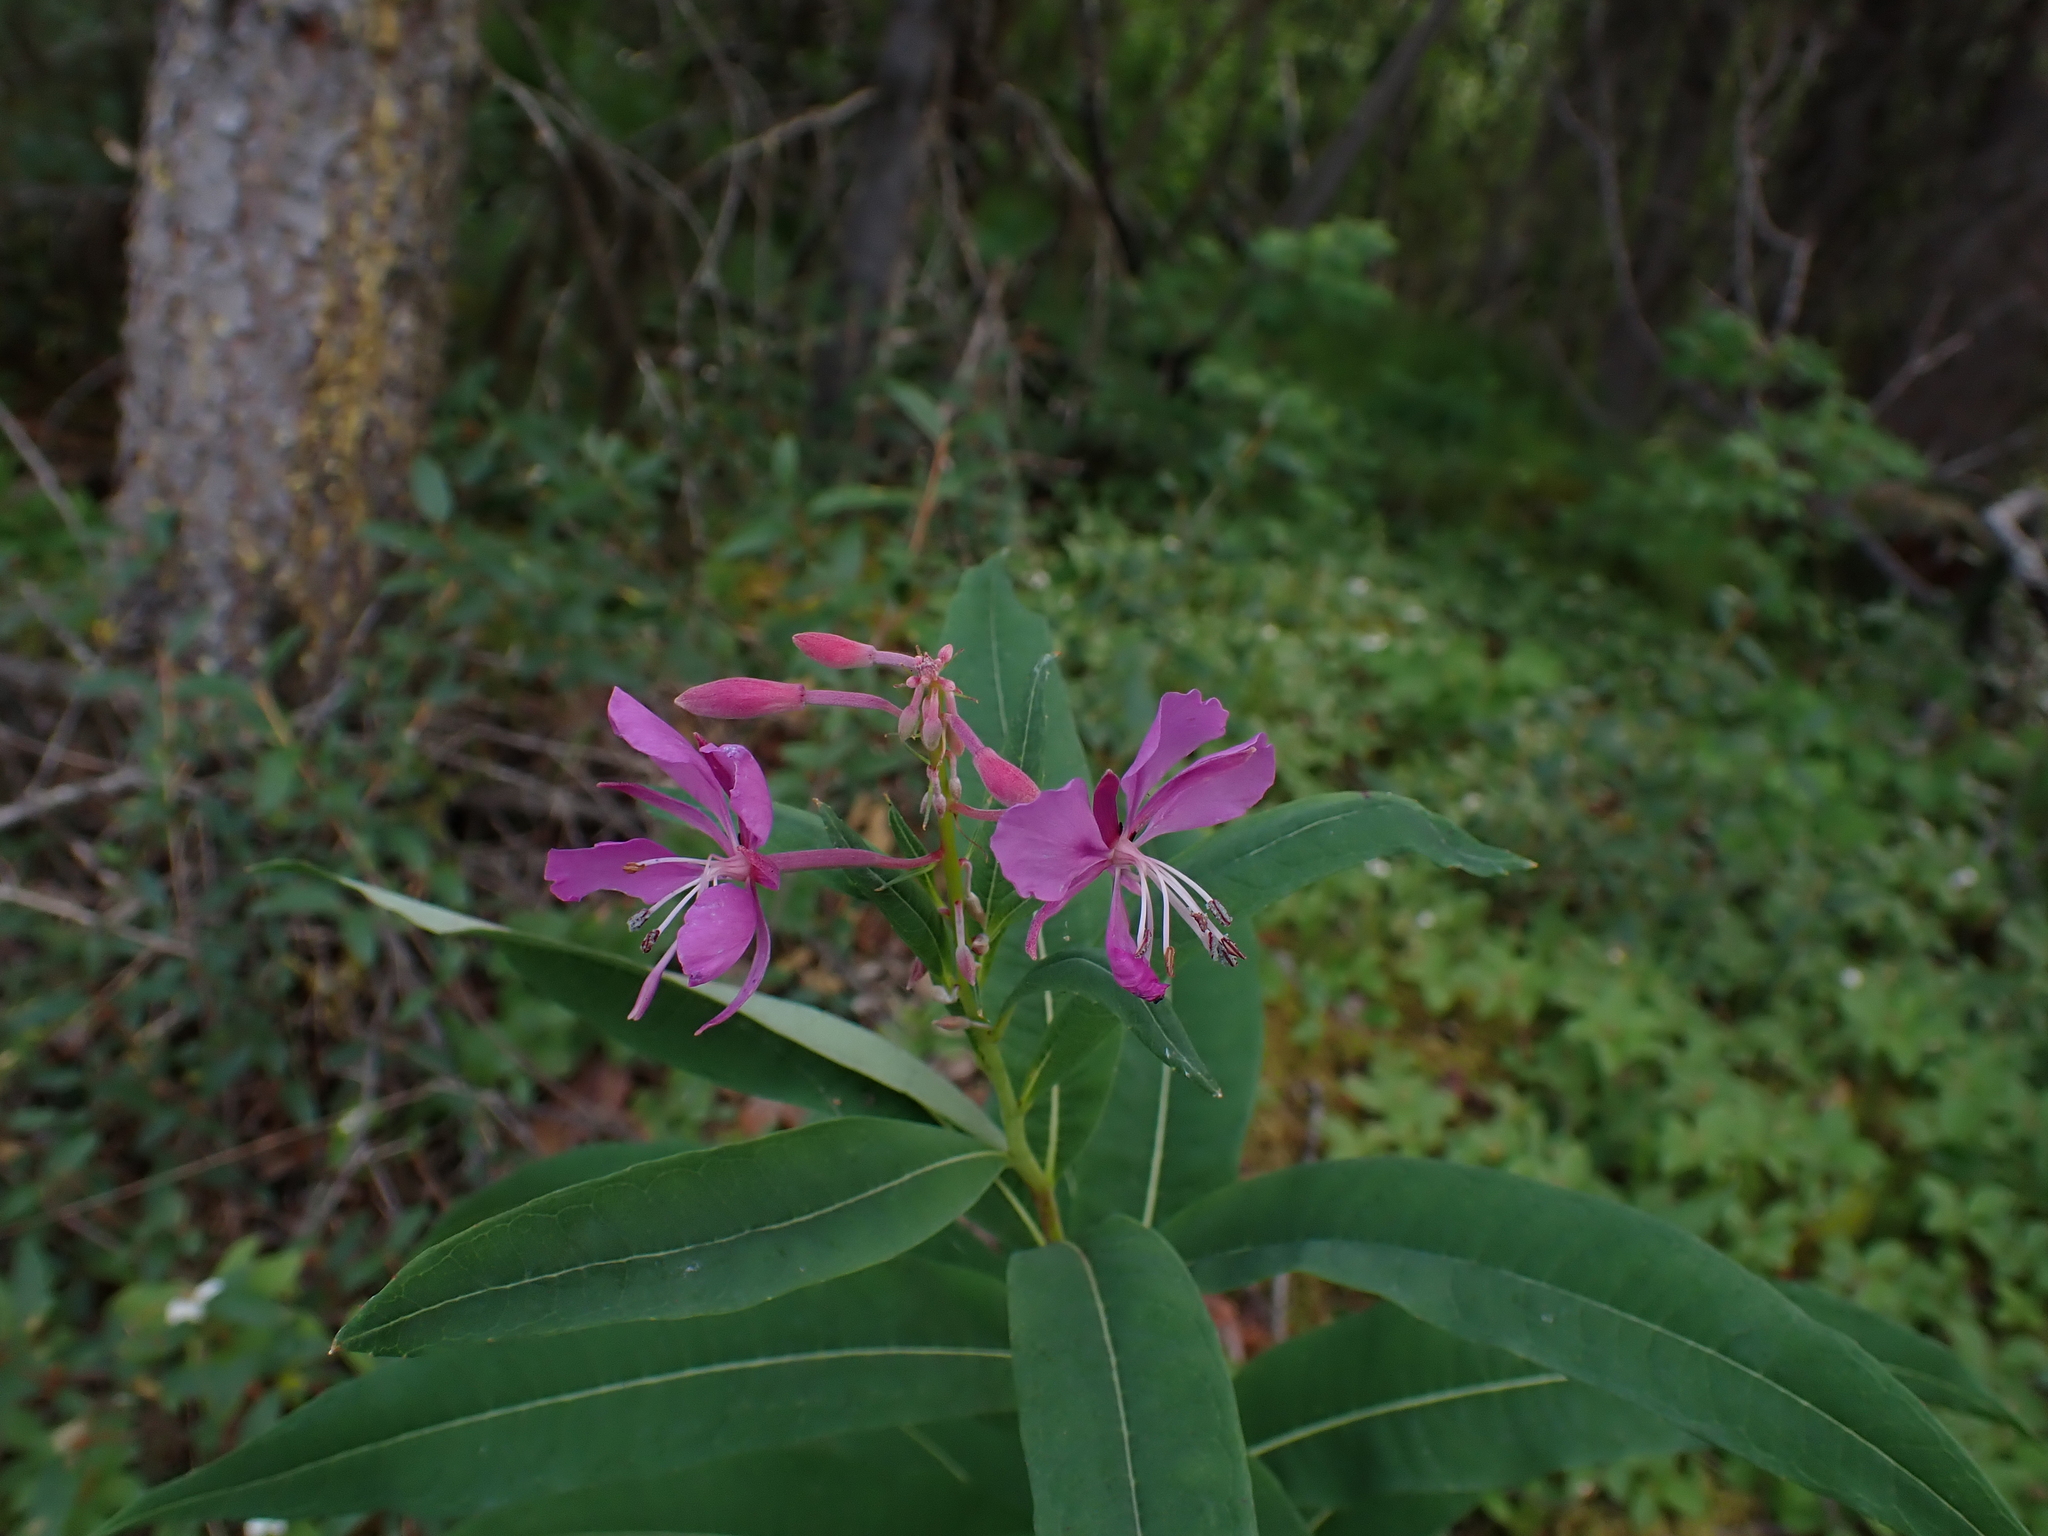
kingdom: Plantae
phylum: Tracheophyta
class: Magnoliopsida
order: Myrtales
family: Onagraceae
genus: Chamaenerion
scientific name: Chamaenerion angustifolium
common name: Fireweed
